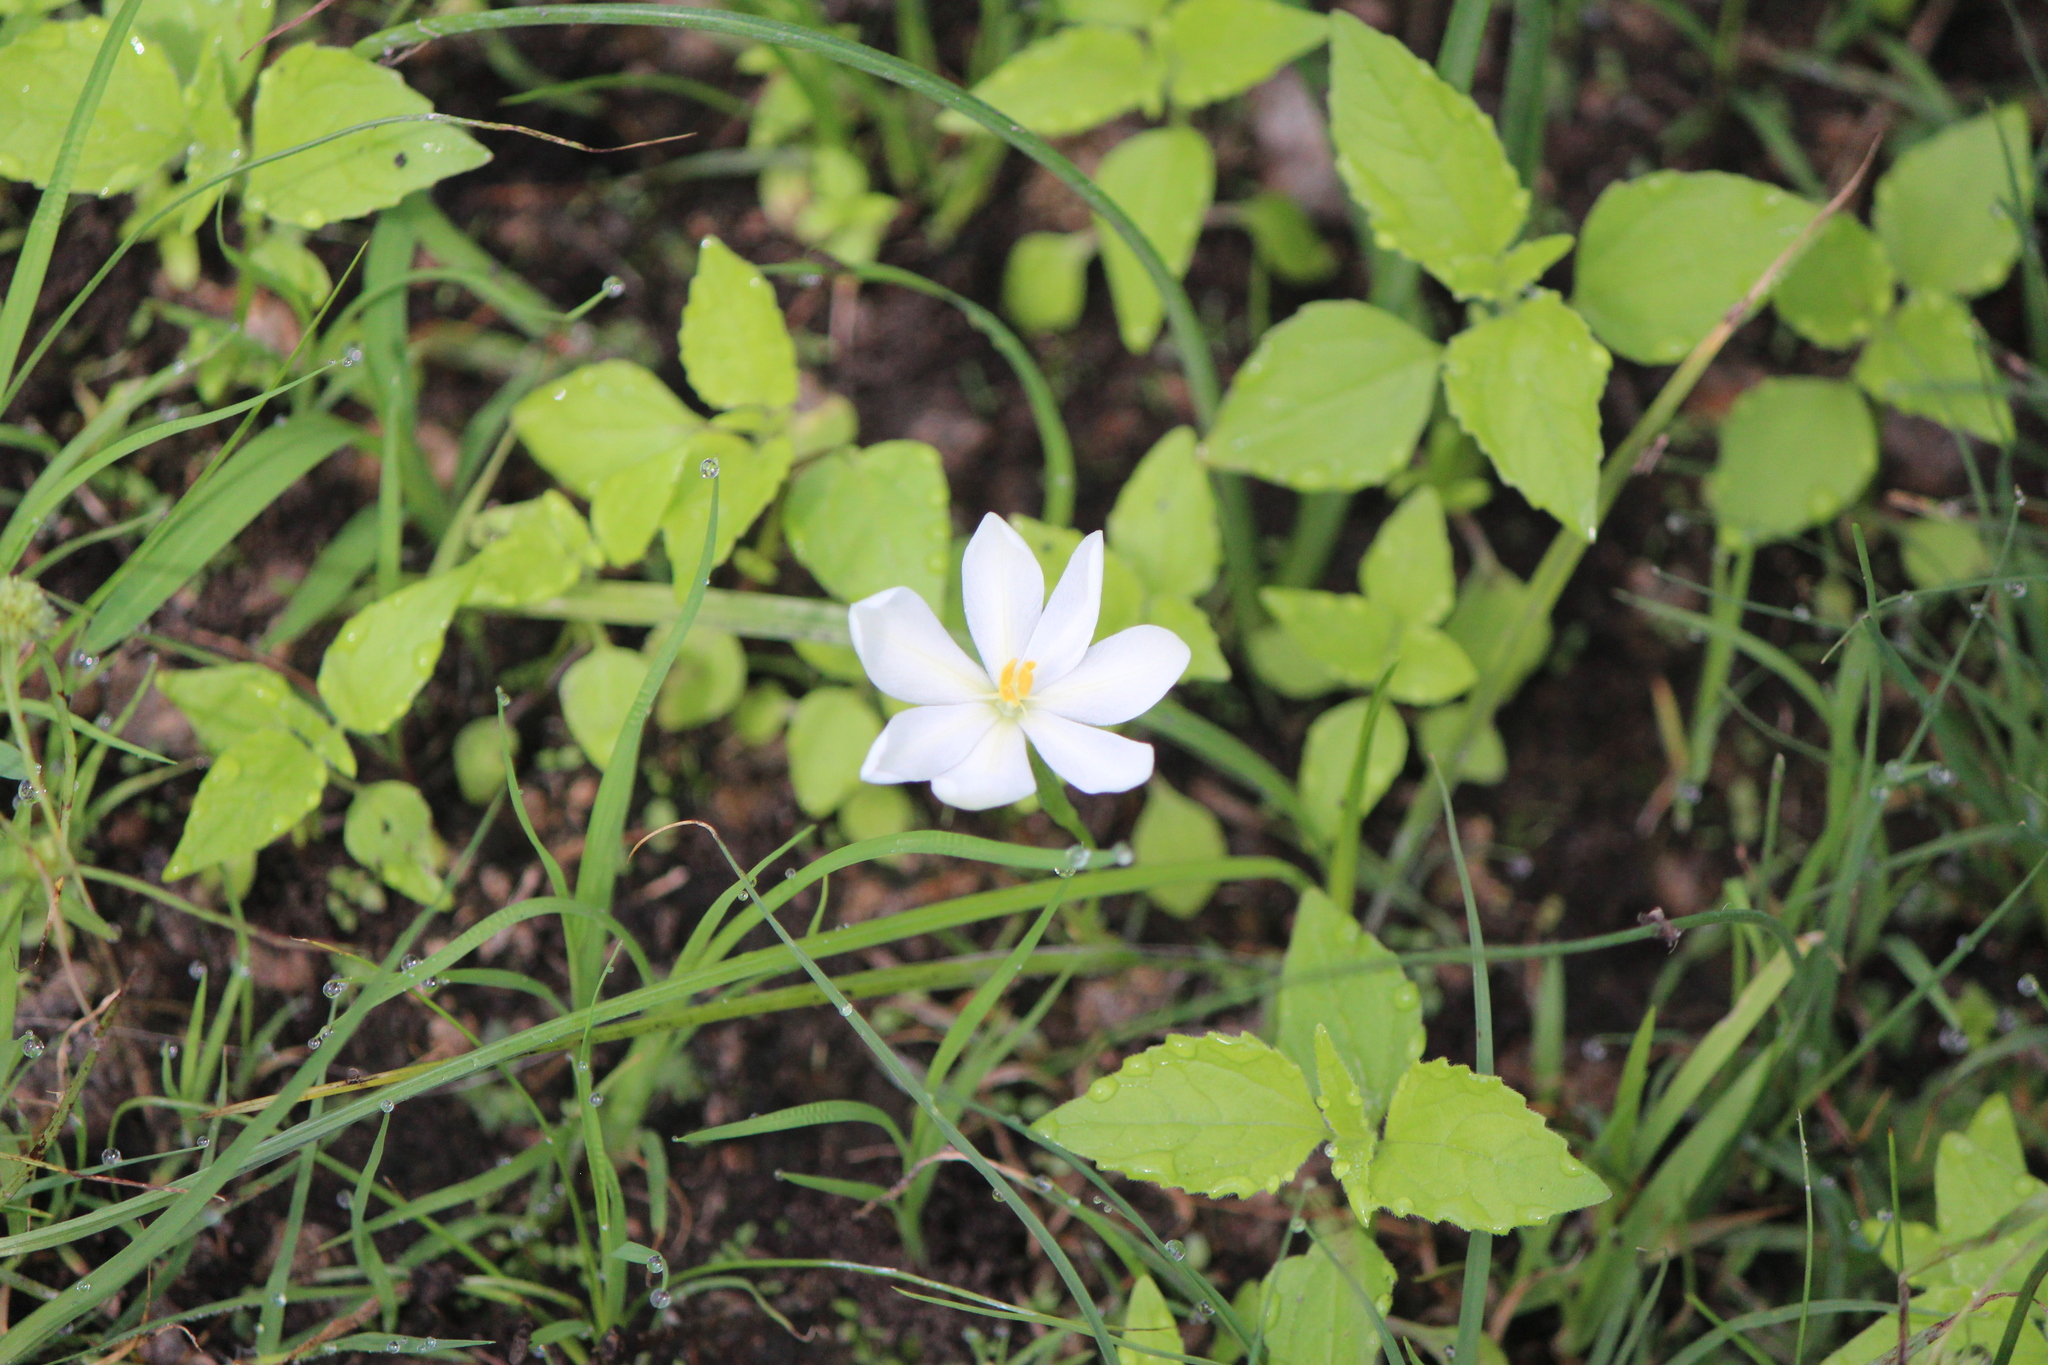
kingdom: Plantae
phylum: Tracheophyta
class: Liliopsida
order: Asparagales
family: Iridaceae
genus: Nemastylis
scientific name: Nemastylis tenuis
